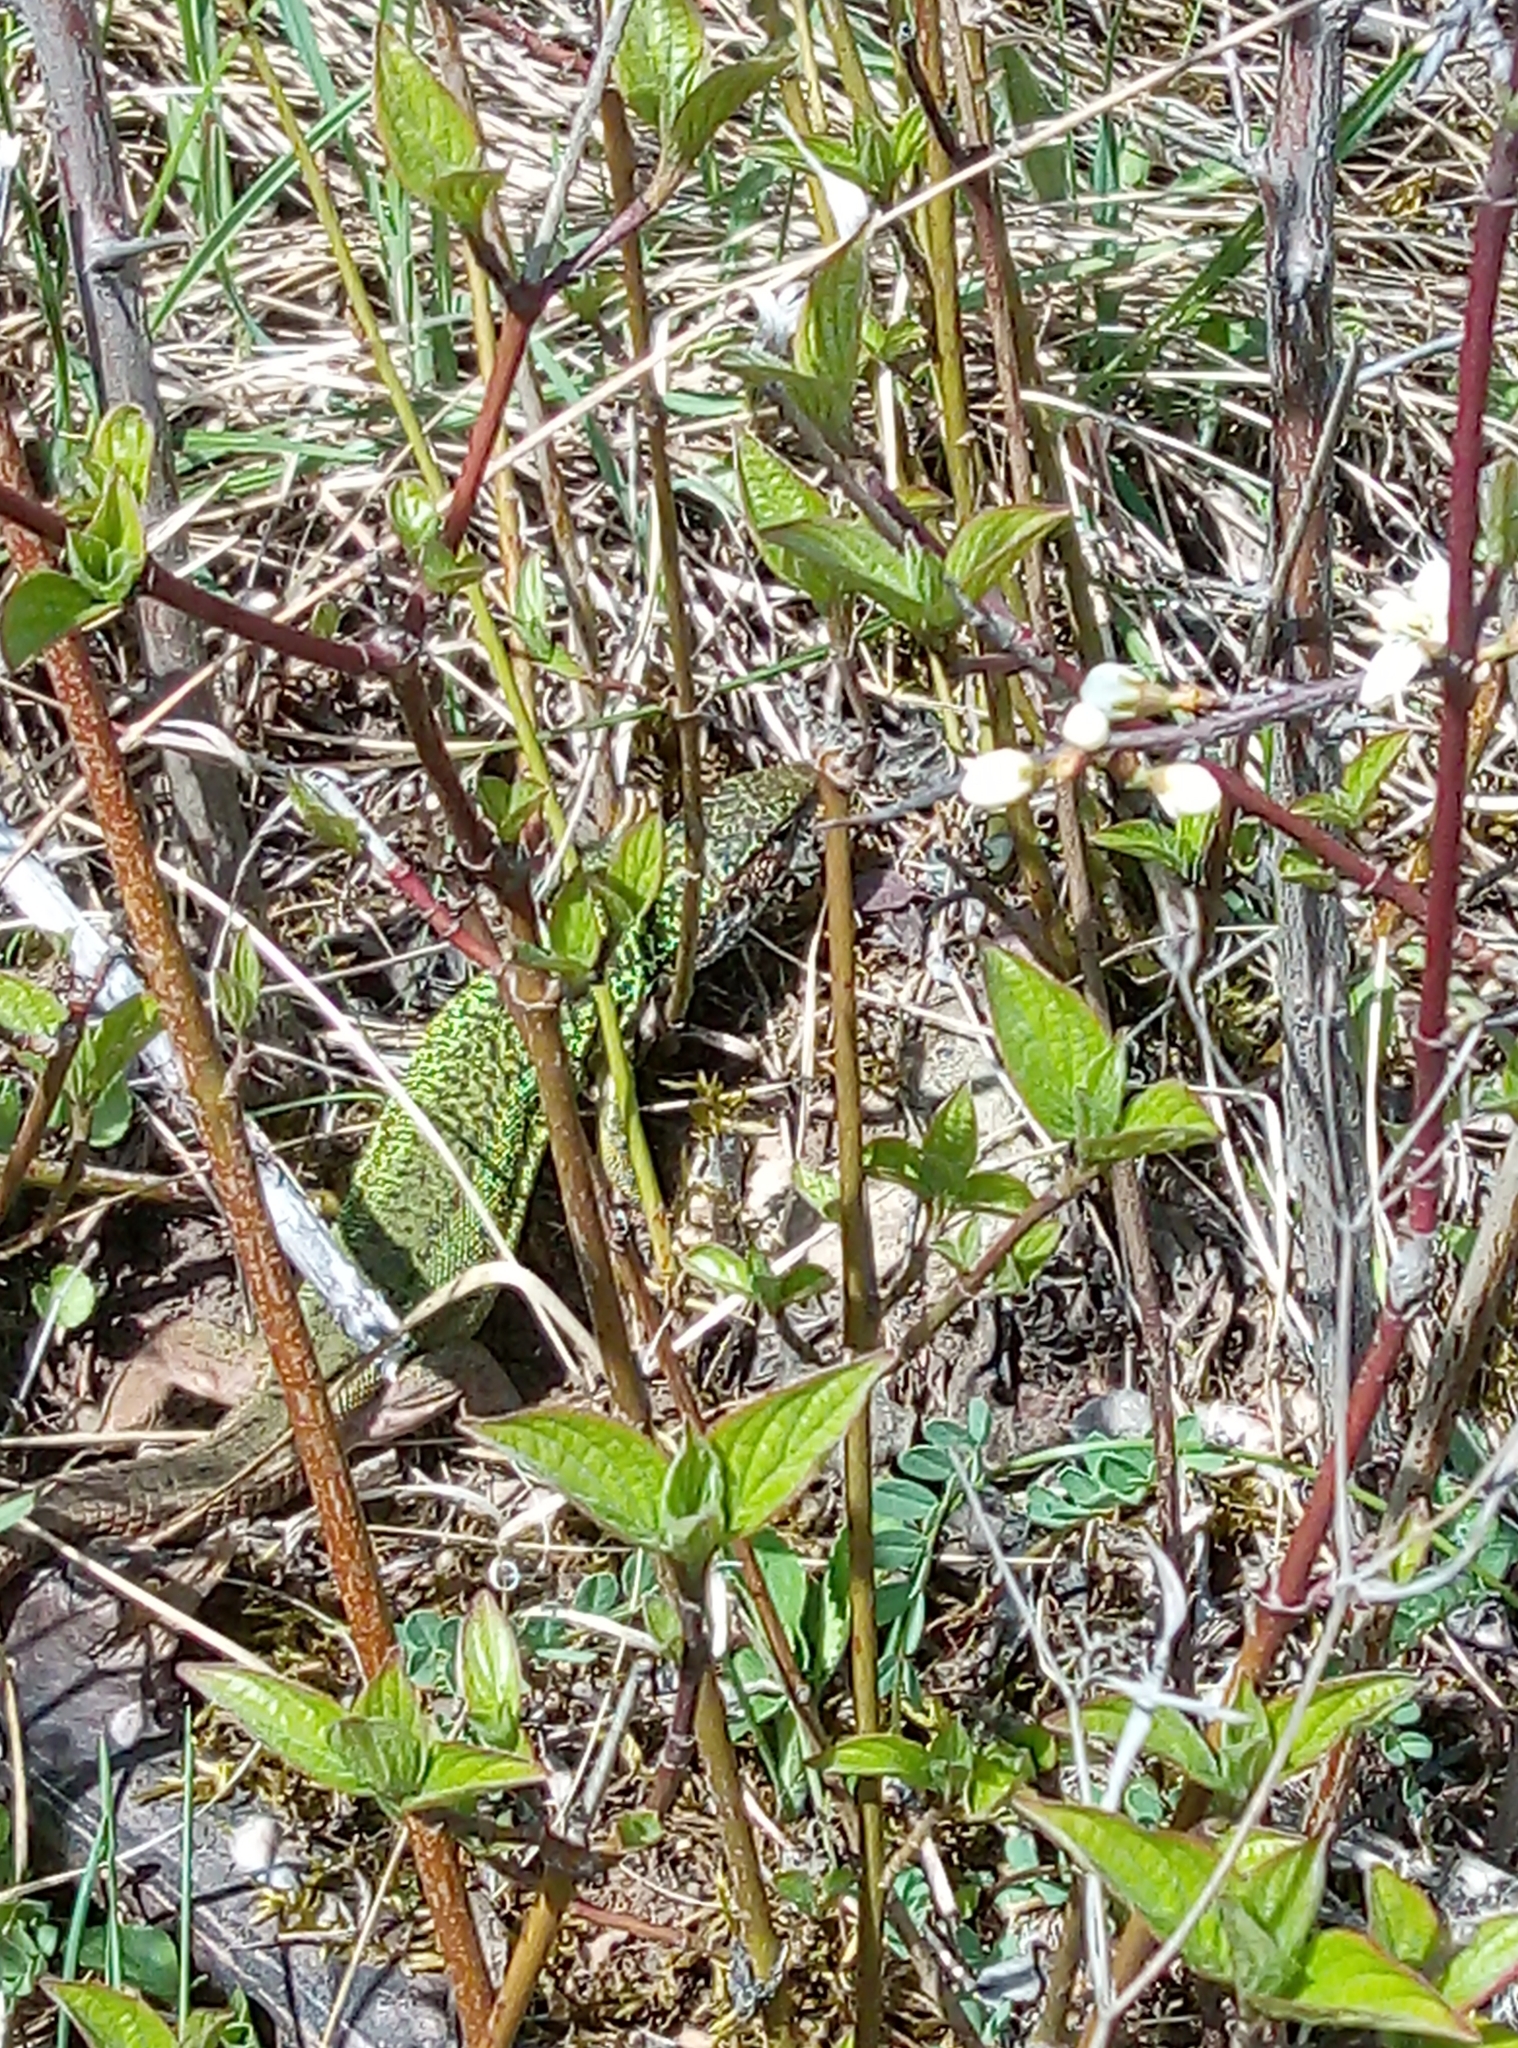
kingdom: Animalia
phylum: Chordata
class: Squamata
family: Lacertidae
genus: Lacerta
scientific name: Lacerta viridis
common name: European green lizard
